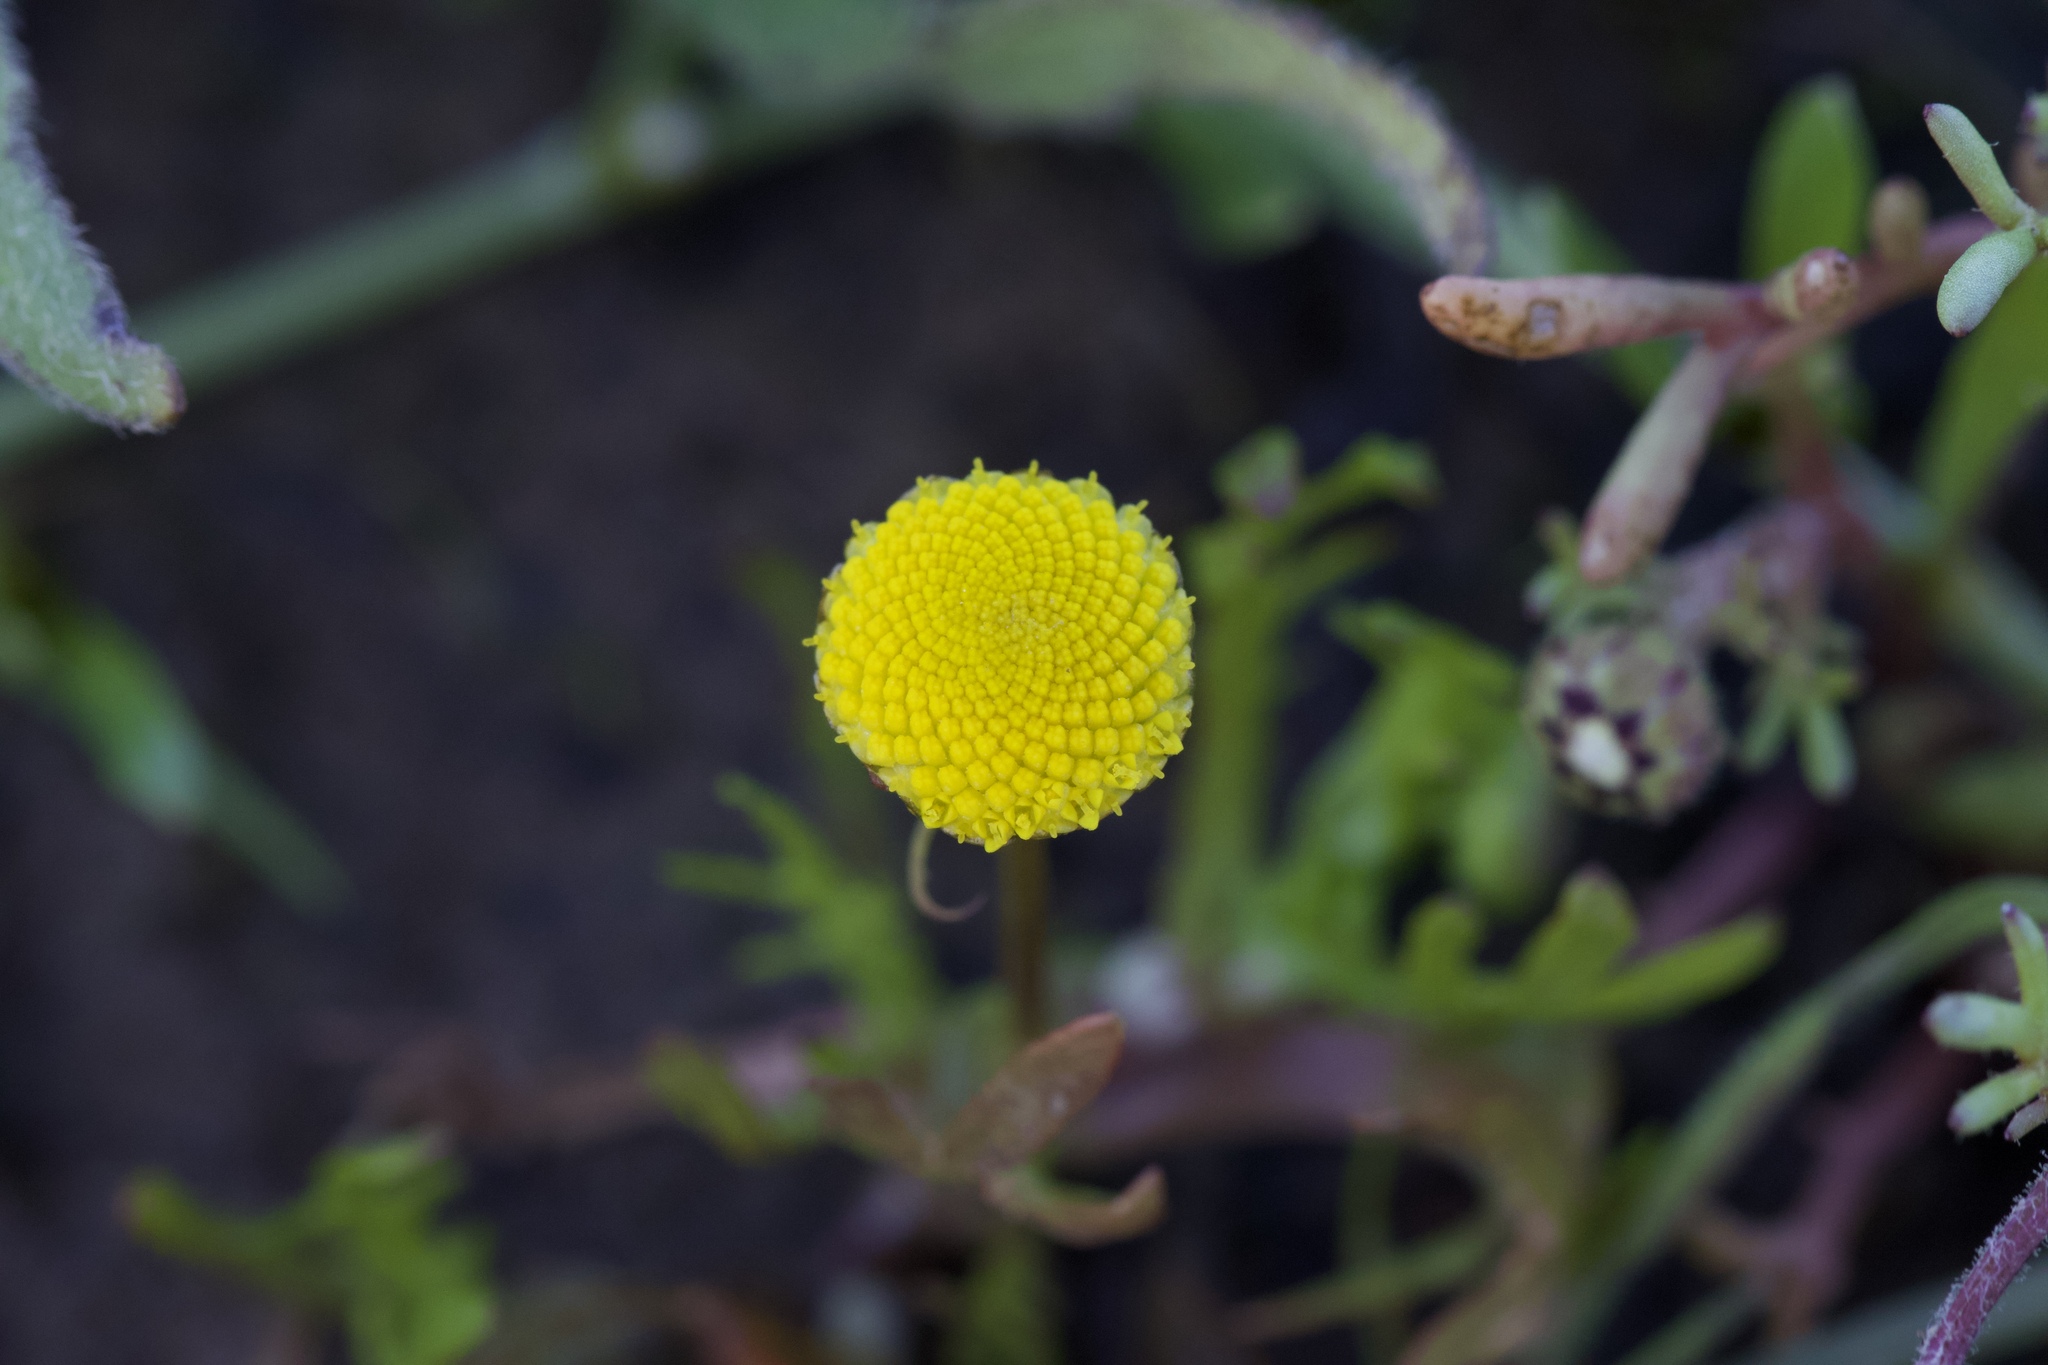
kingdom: Plantae
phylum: Tracheophyta
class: Magnoliopsida
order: Asterales
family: Asteraceae
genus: Cotula
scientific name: Cotula coronopifolia
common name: Buttonweed
